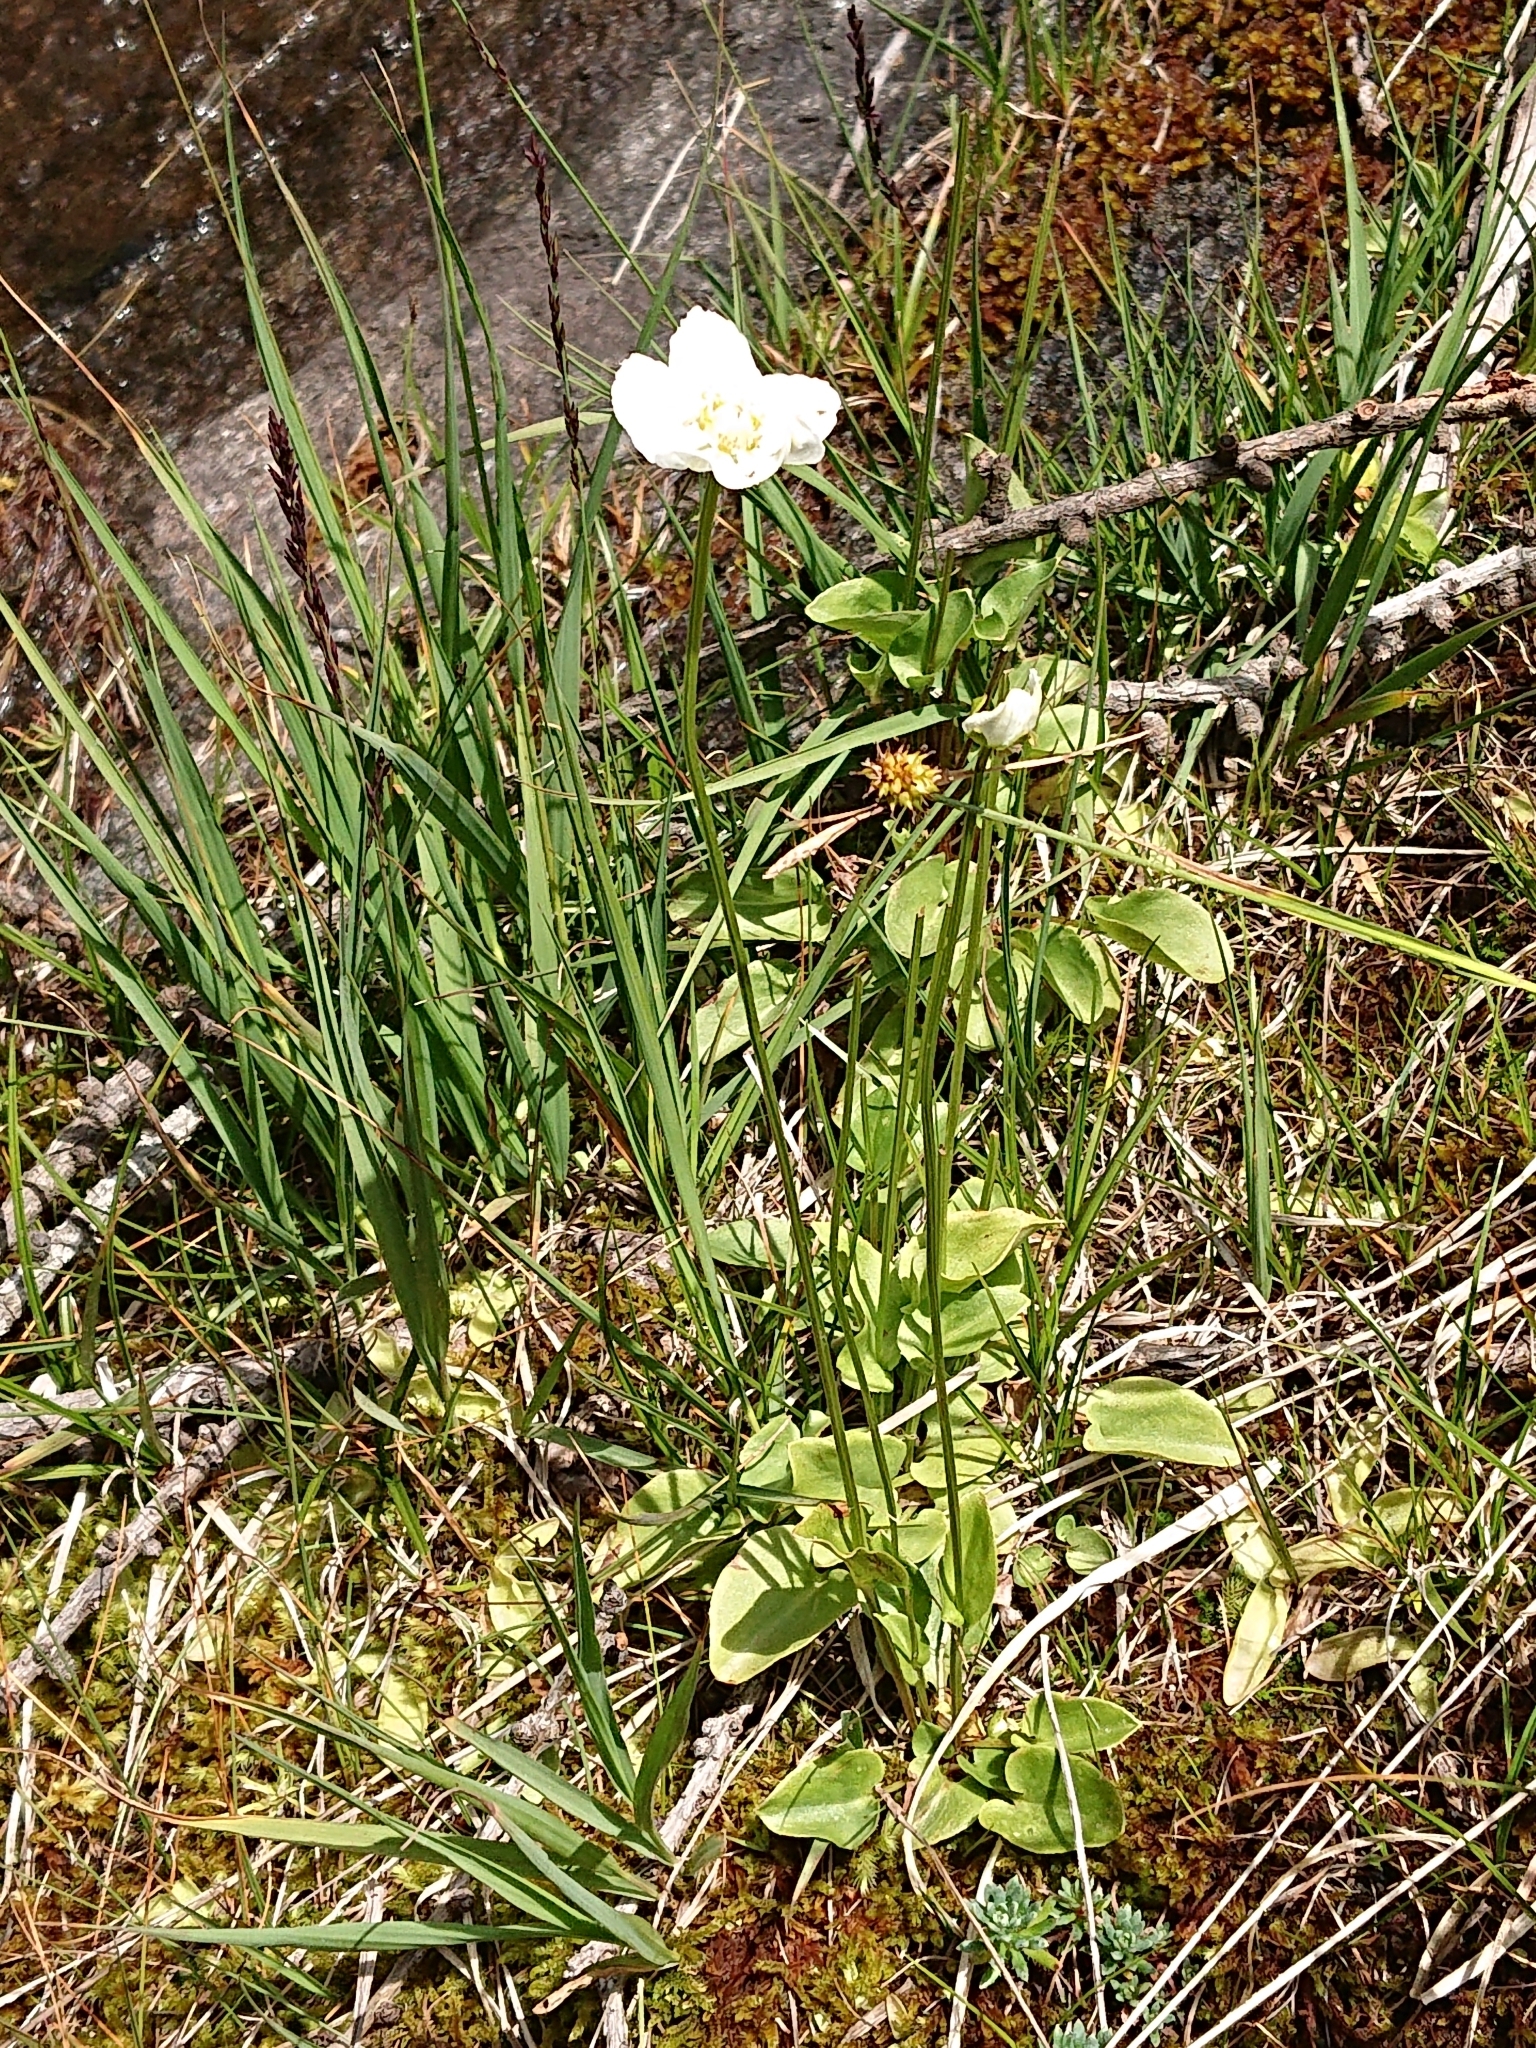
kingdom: Plantae
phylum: Tracheophyta
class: Magnoliopsida
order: Celastrales
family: Parnassiaceae
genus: Parnassia
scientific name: Parnassia palustris
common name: Grass-of-parnassus
